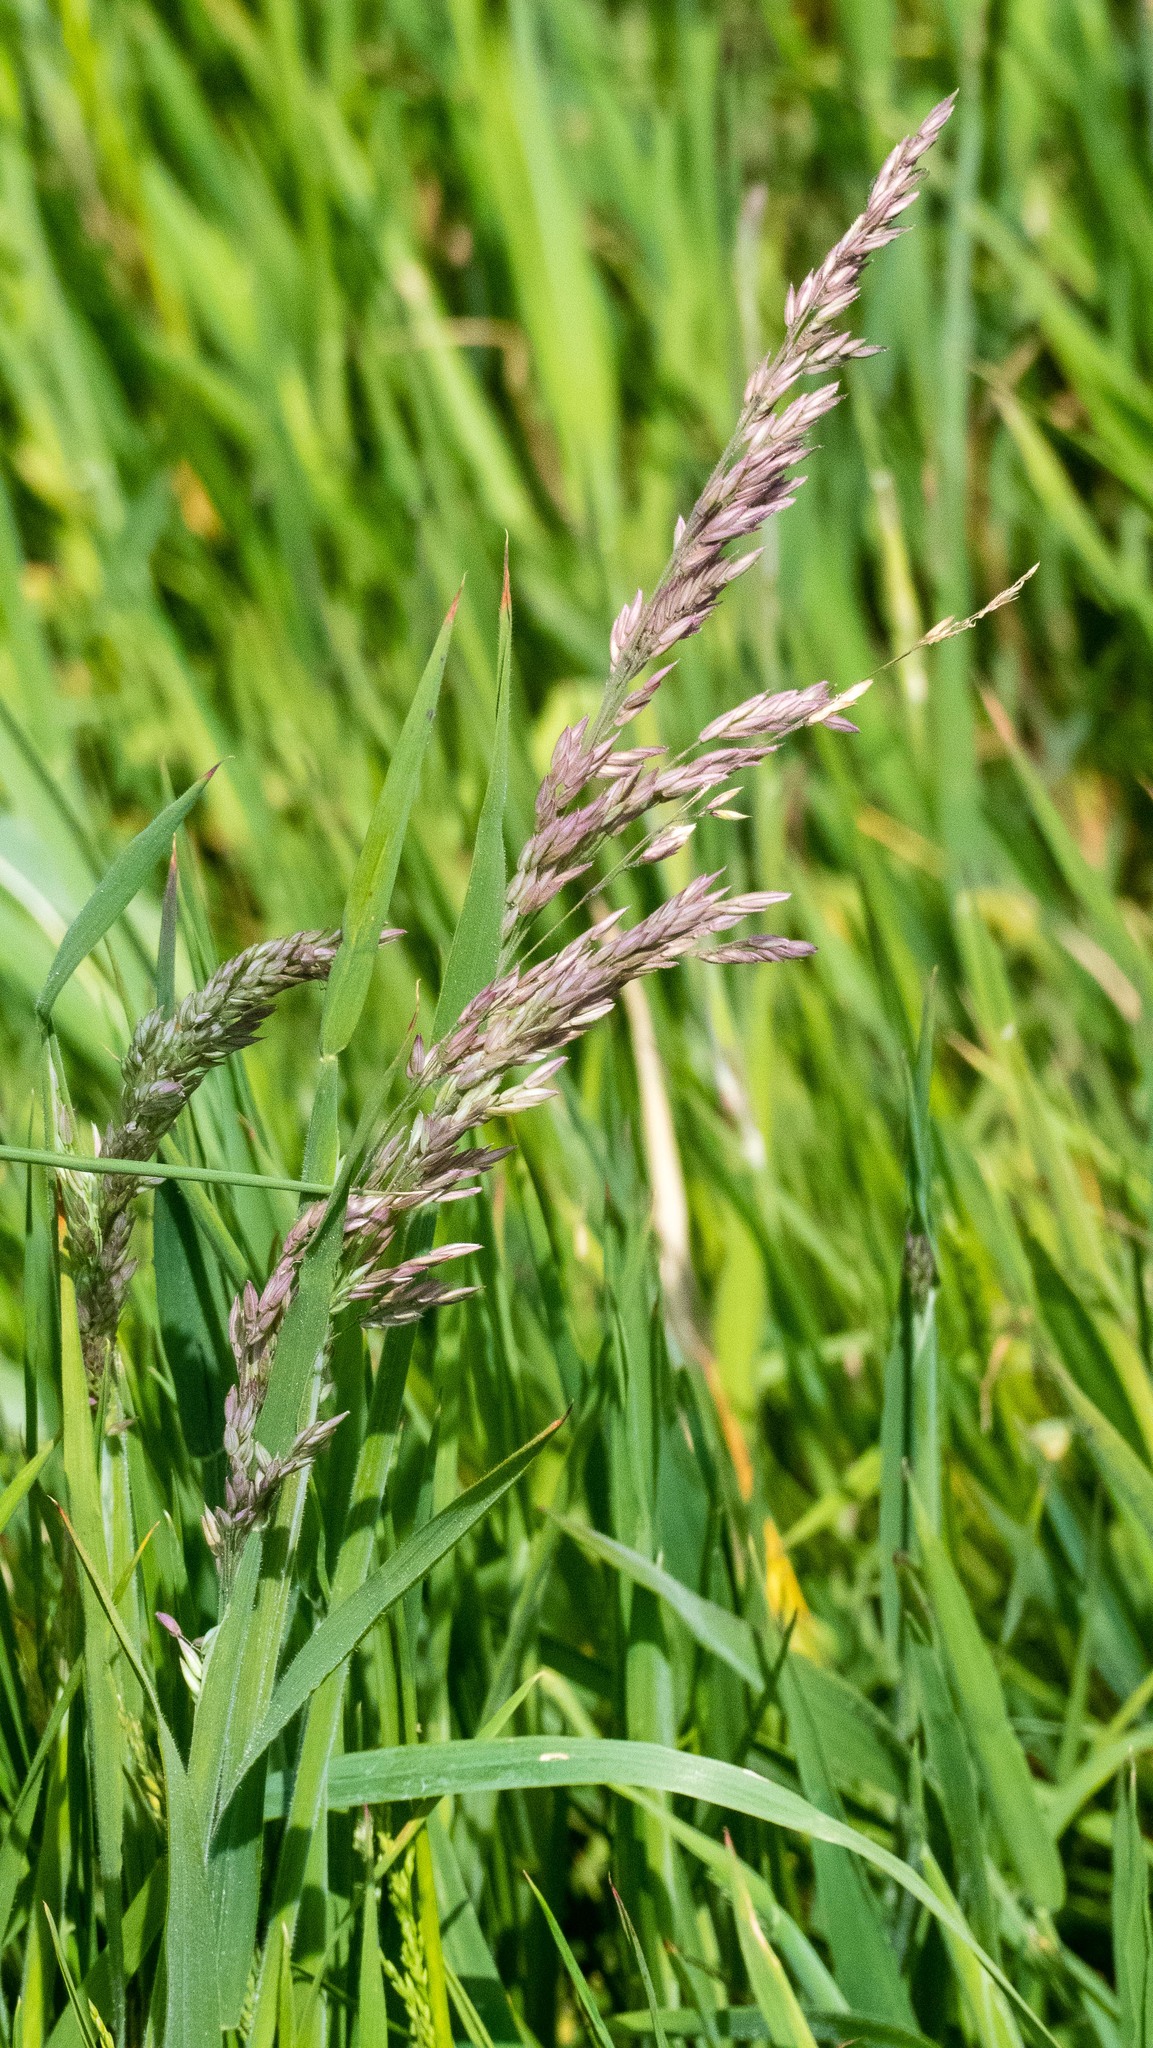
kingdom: Plantae
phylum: Tracheophyta
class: Liliopsida
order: Poales
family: Poaceae
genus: Holcus
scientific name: Holcus lanatus
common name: Yorkshire-fog
